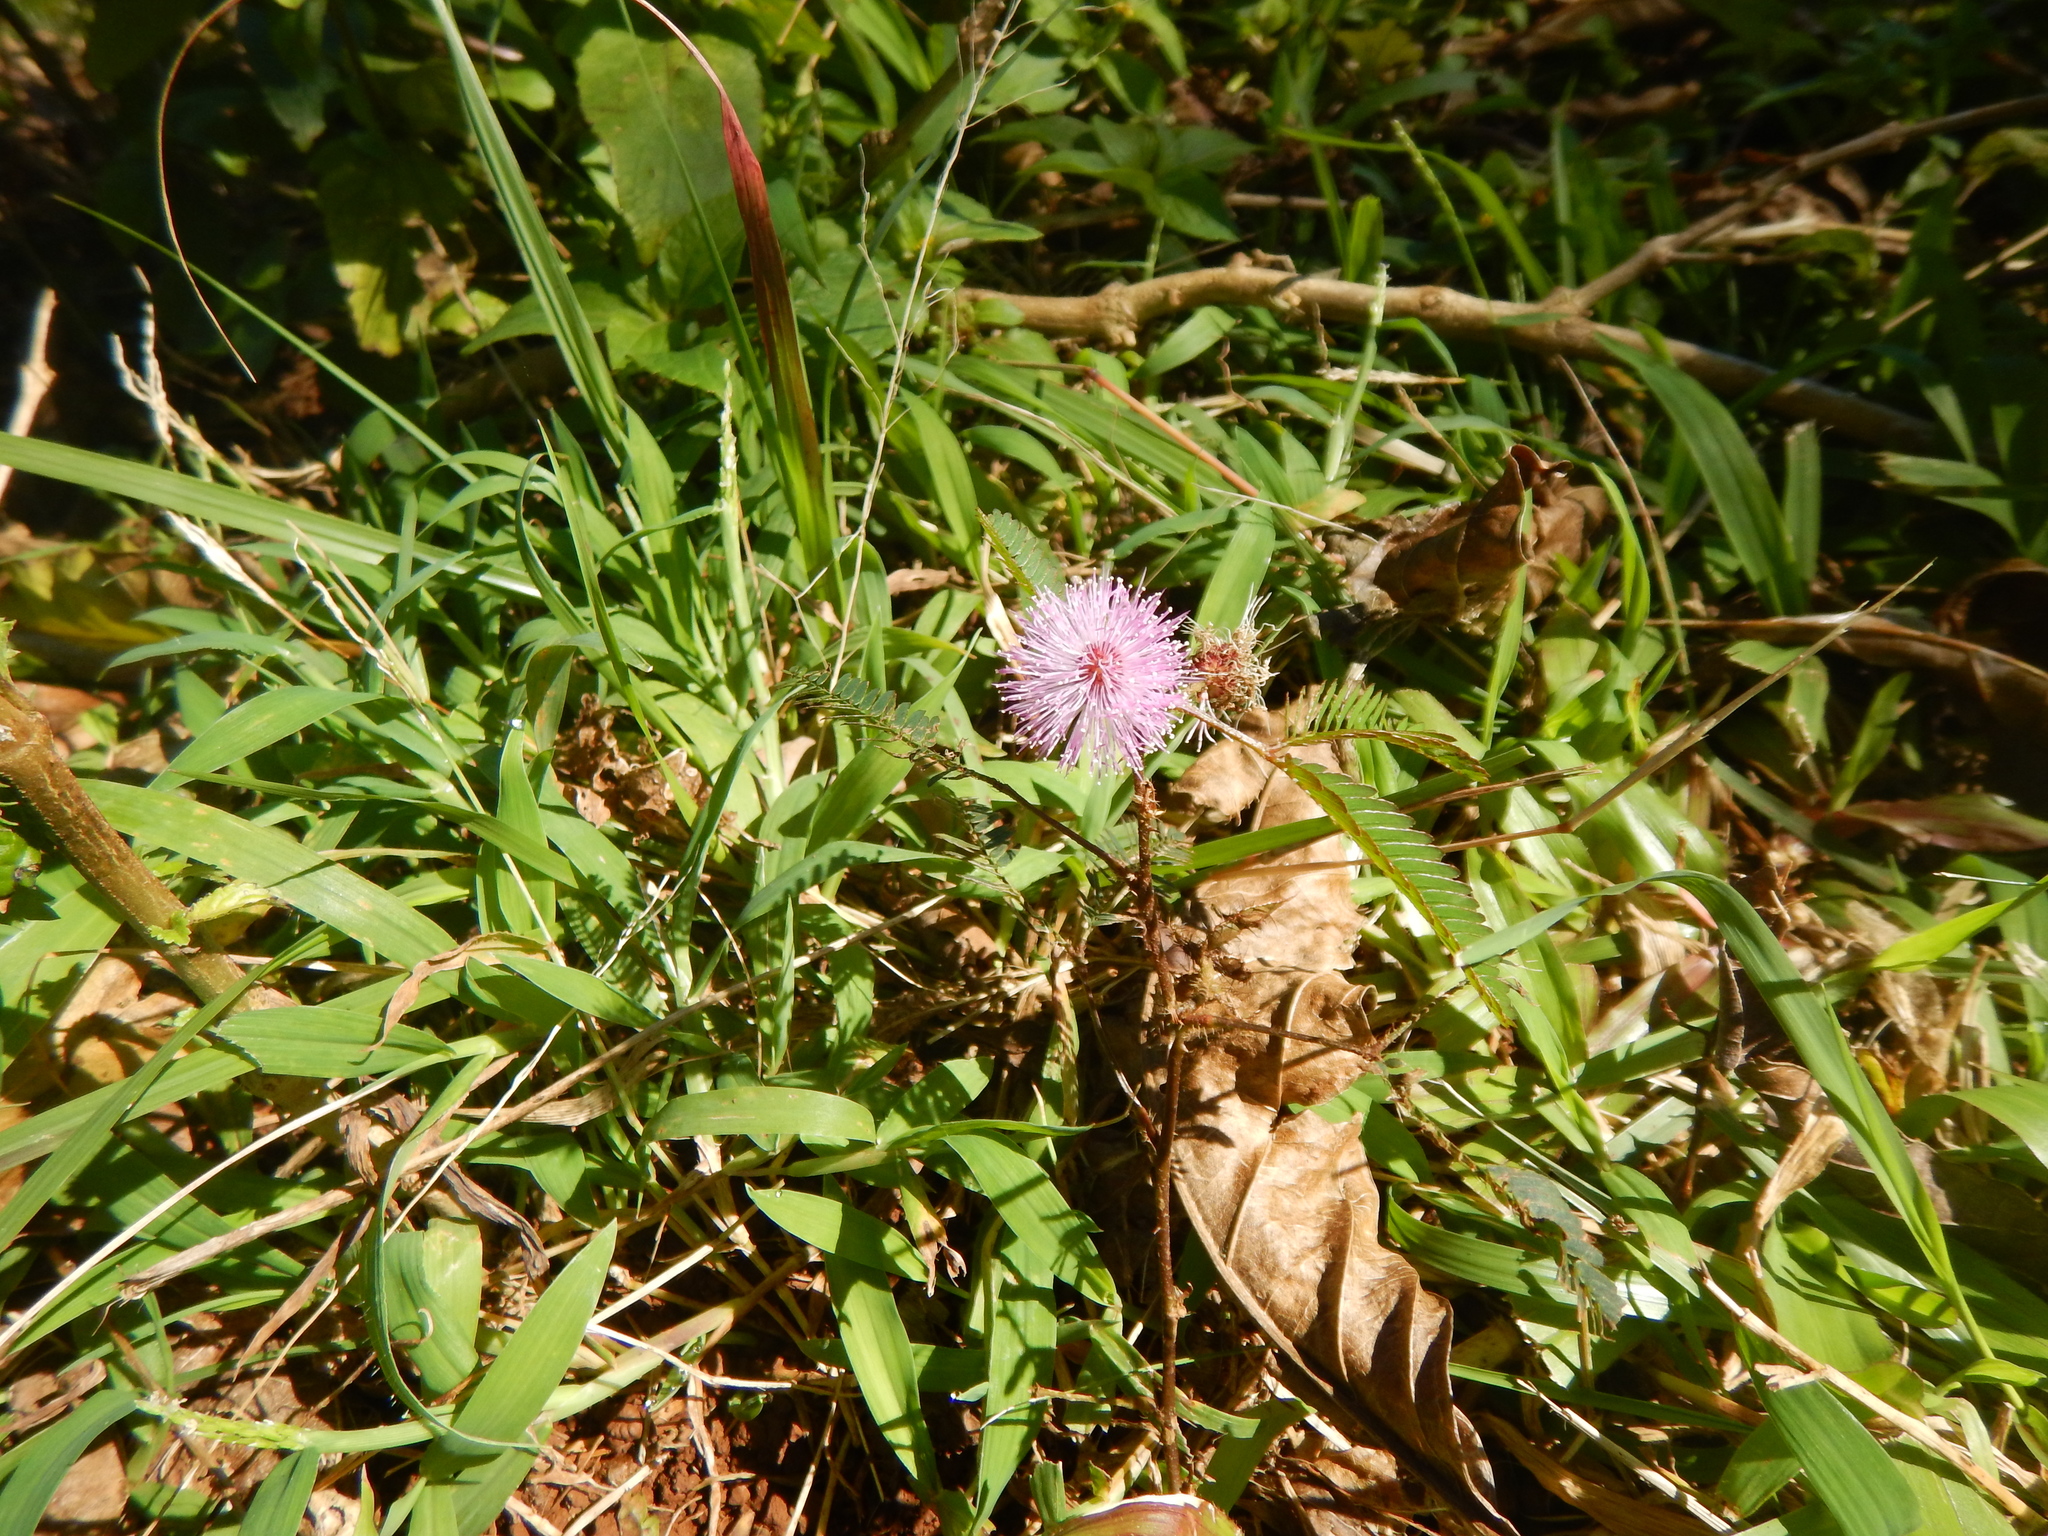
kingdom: Plantae
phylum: Tracheophyta
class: Magnoliopsida
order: Fabales
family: Fabaceae
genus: Mimosa
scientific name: Mimosa pudica
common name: Sensitive plant
